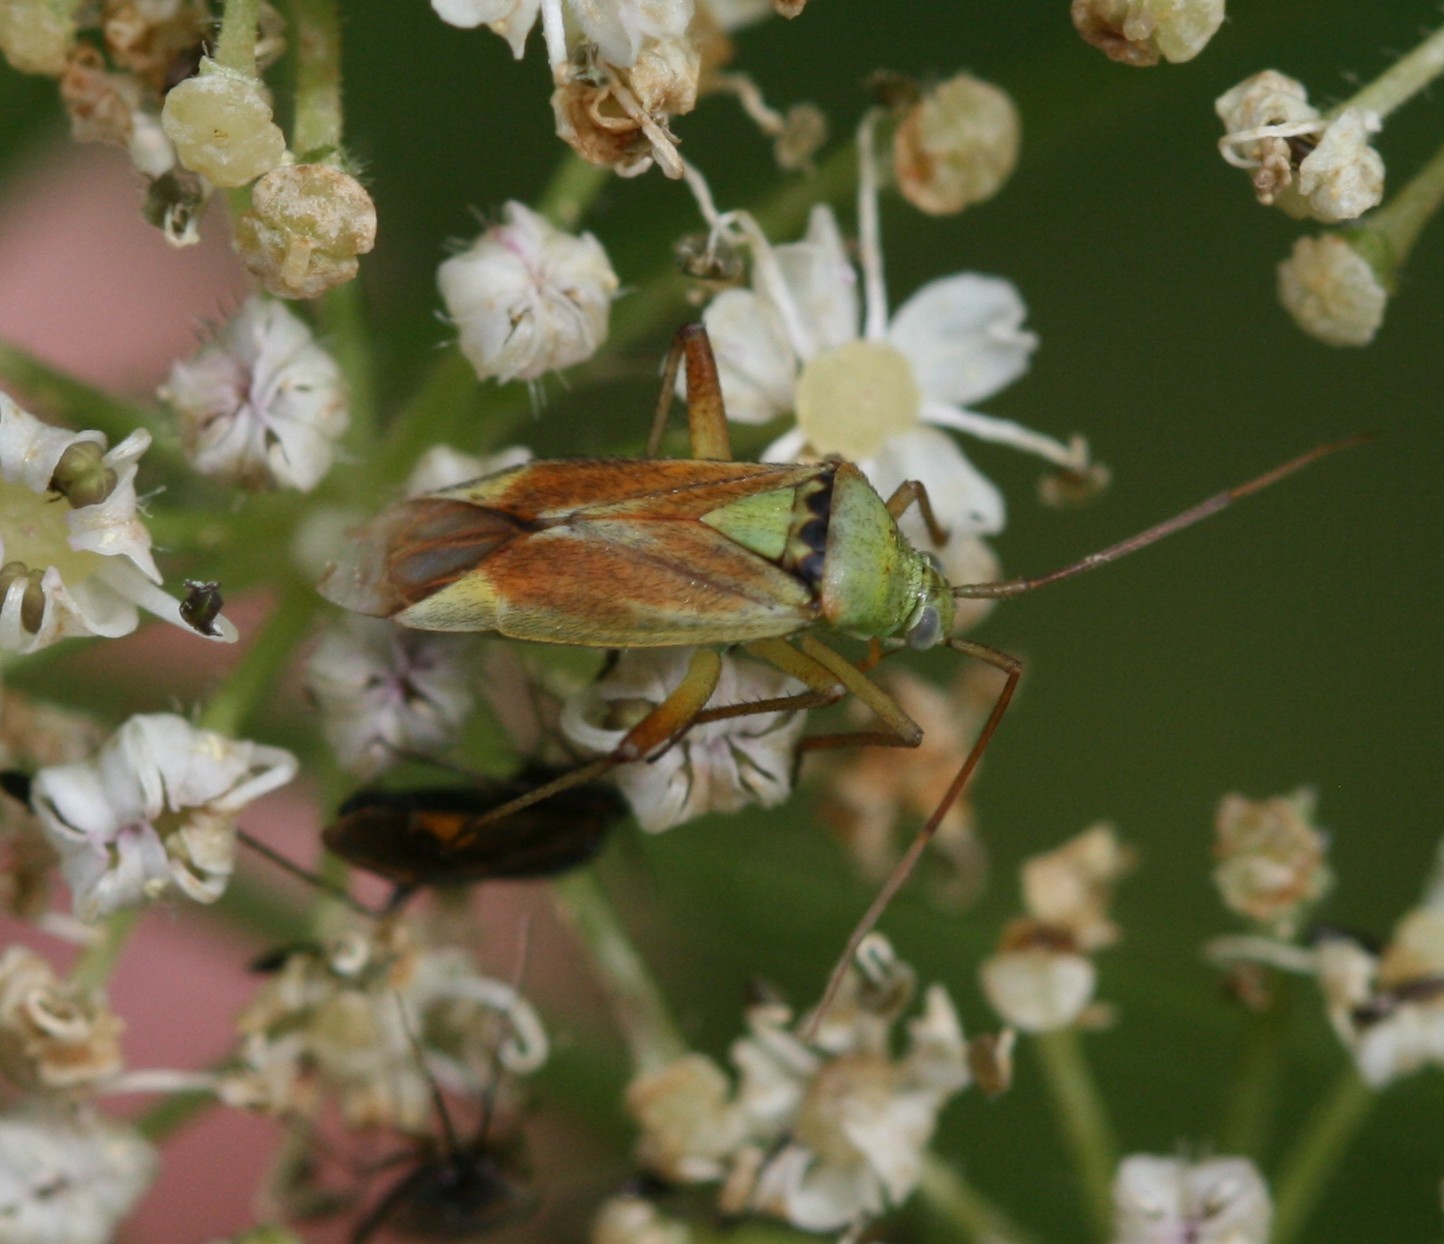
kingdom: Animalia
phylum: Arthropoda
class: Insecta
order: Hemiptera
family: Miridae
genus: Closterotomus
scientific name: Closterotomus norvegicus
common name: Plant bug
